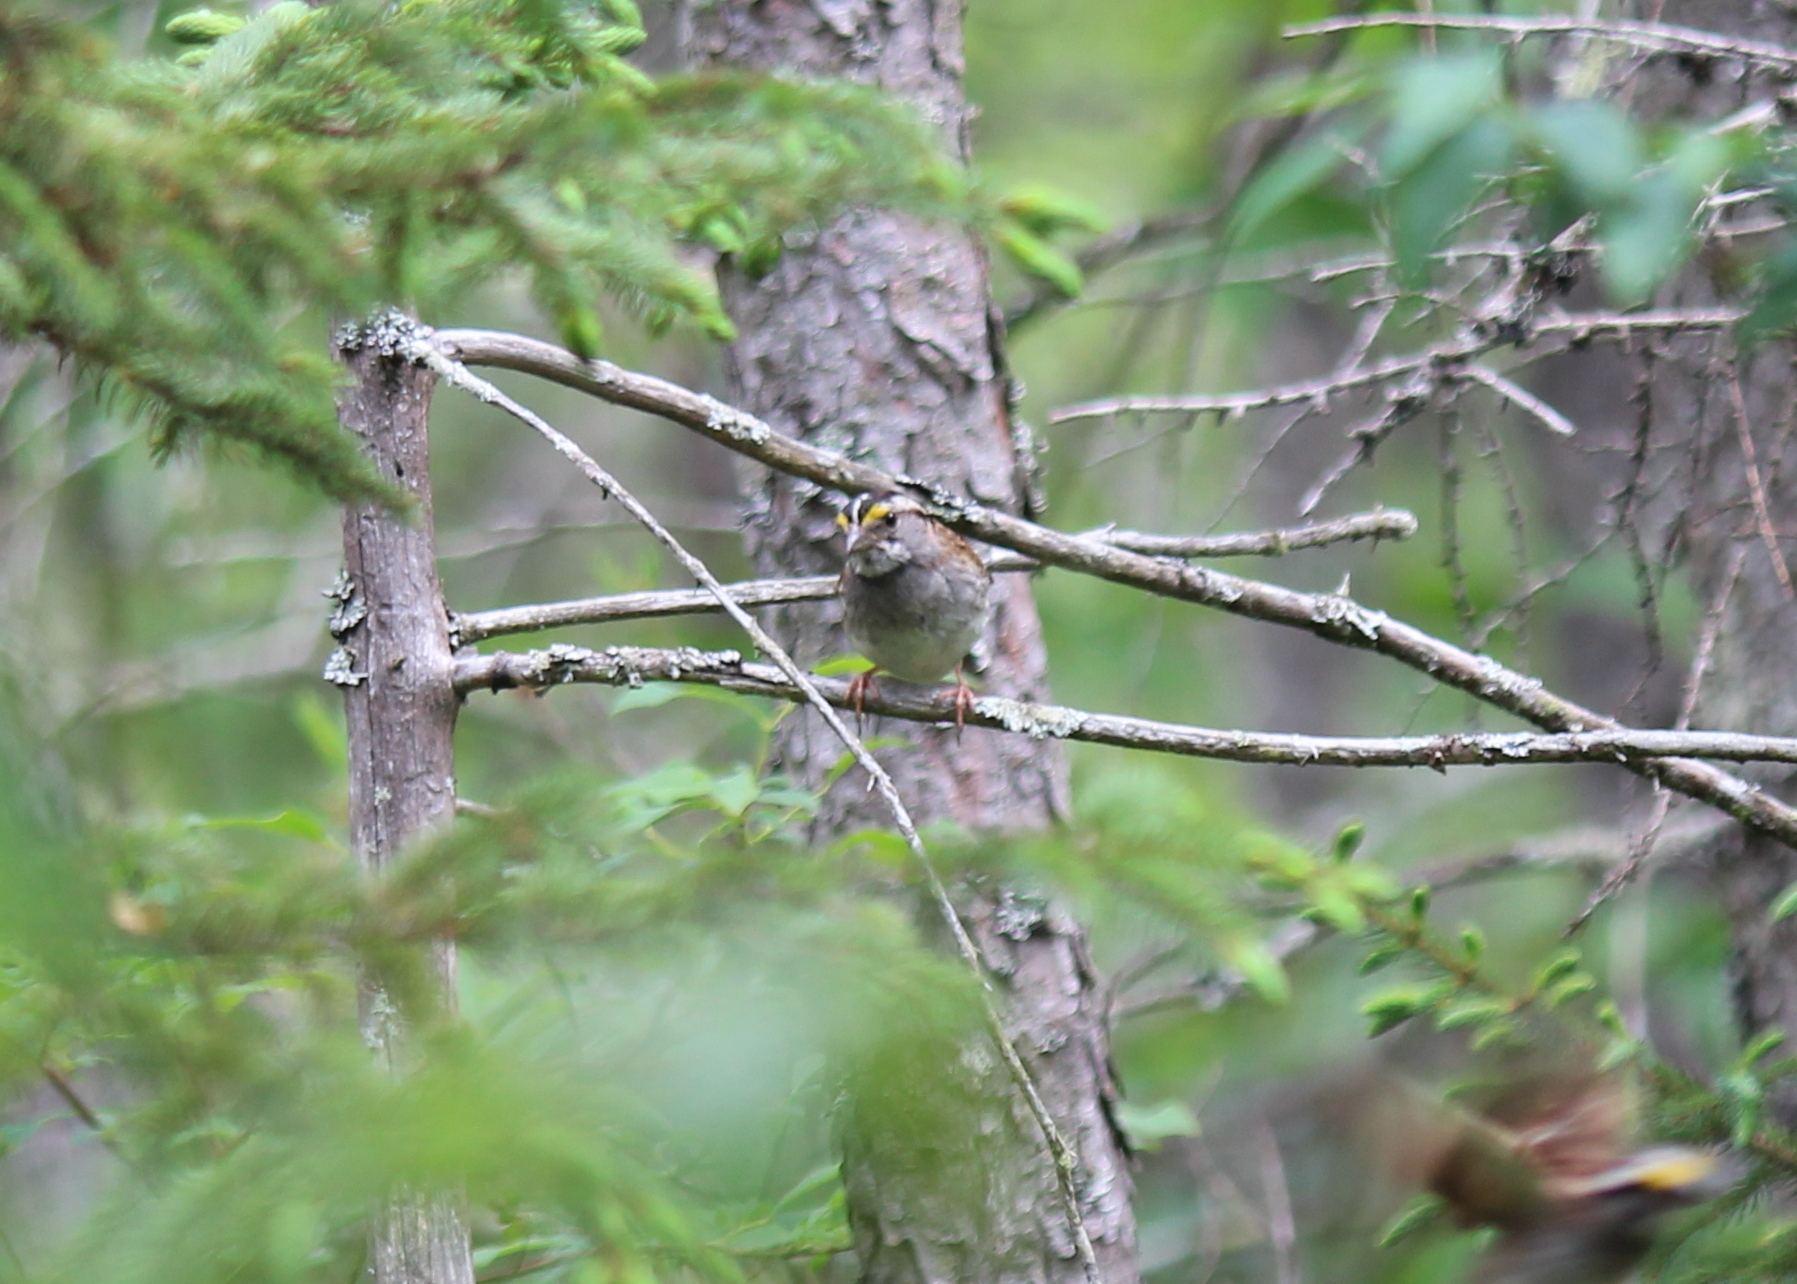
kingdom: Animalia
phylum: Chordata
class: Aves
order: Passeriformes
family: Passerellidae
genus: Zonotrichia
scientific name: Zonotrichia albicollis
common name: White-throated sparrow
